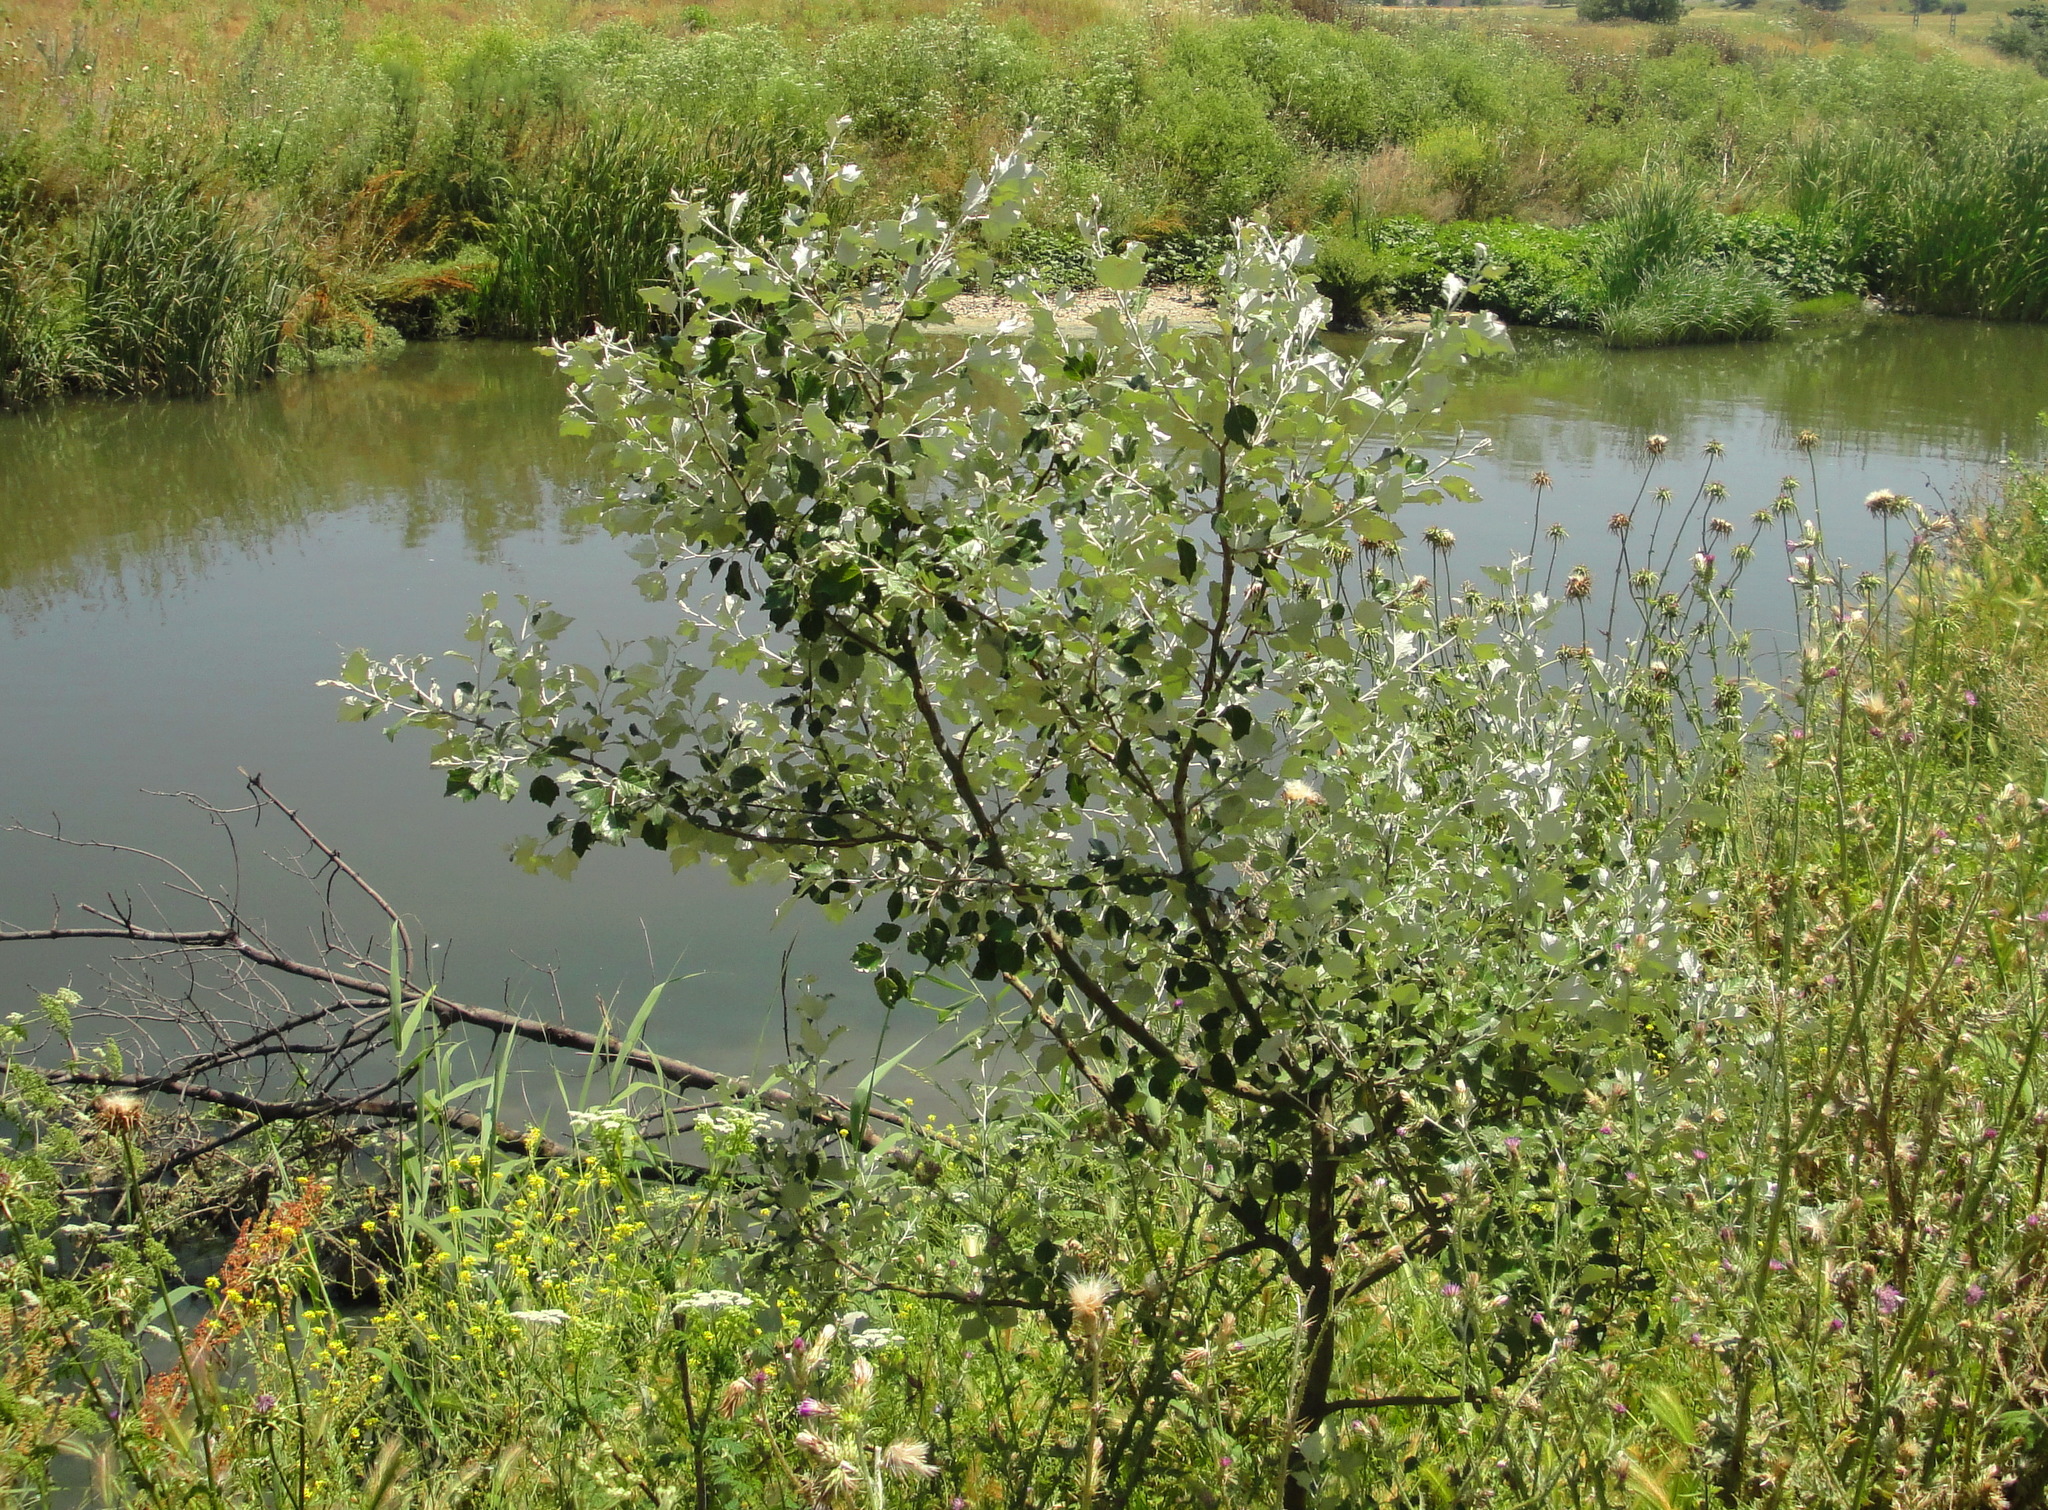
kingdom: Plantae
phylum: Tracheophyta
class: Magnoliopsida
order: Malpighiales
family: Salicaceae
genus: Populus
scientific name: Populus alba
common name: White poplar
